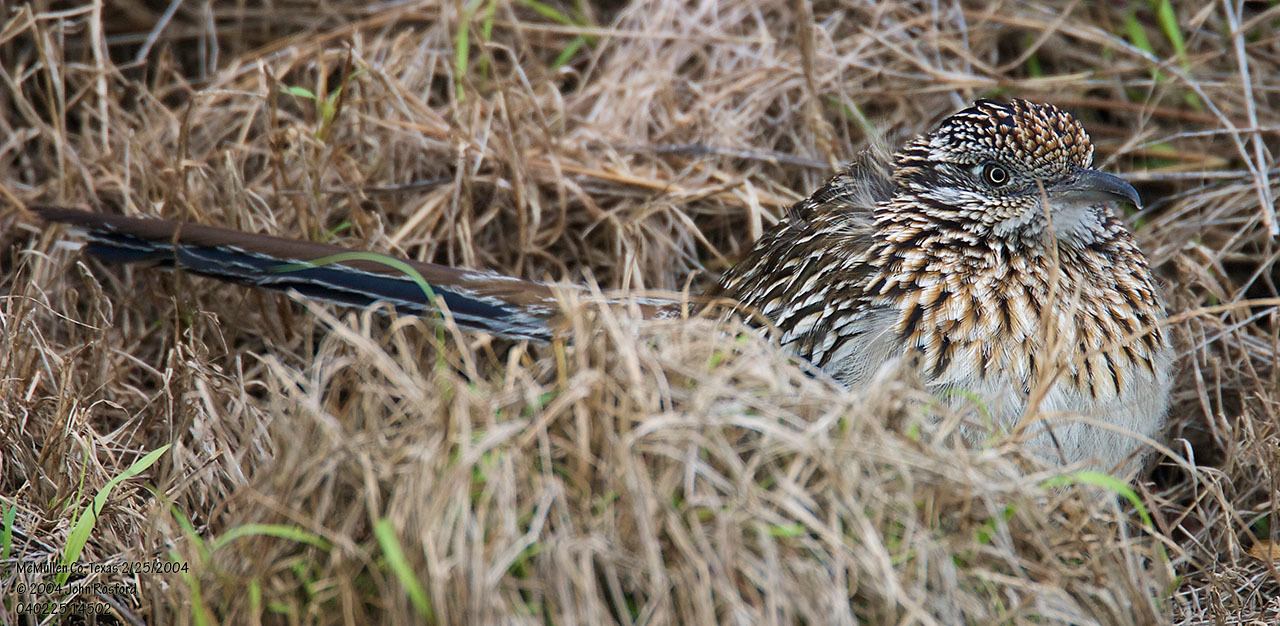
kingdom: Animalia
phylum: Chordata
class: Aves
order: Cuculiformes
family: Cuculidae
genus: Geococcyx
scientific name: Geococcyx californianus
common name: Greater roadrunner
